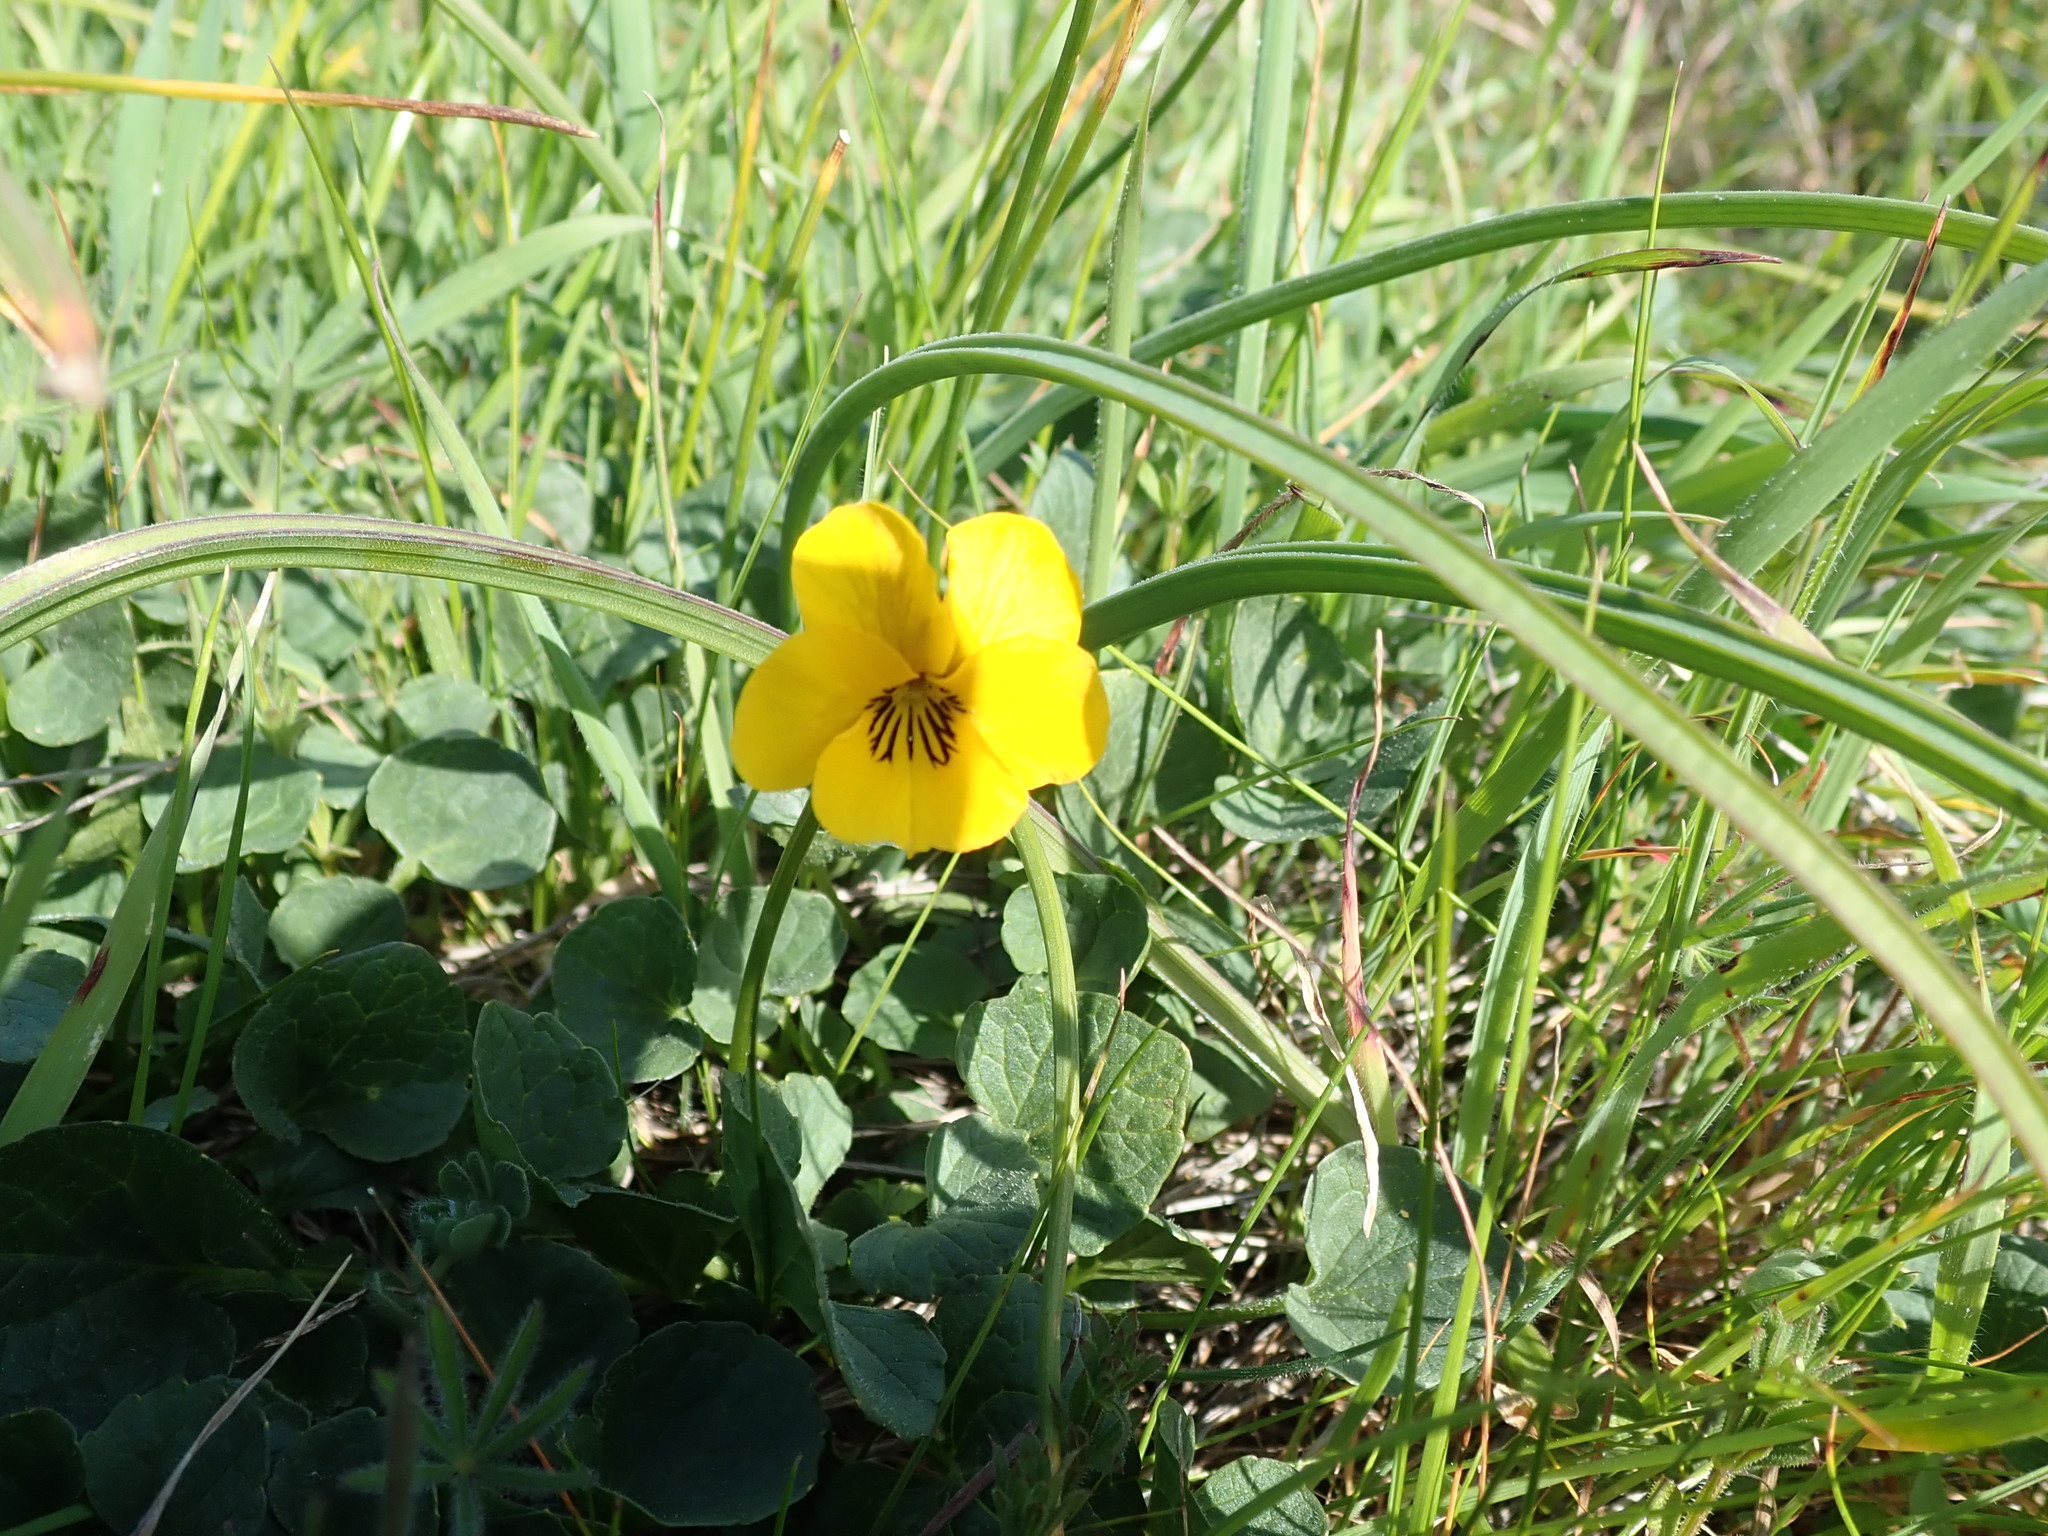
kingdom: Plantae
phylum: Tracheophyta
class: Magnoliopsida
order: Malpighiales
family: Violaceae
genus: Viola
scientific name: Viola pedunculata
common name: California golden violet
